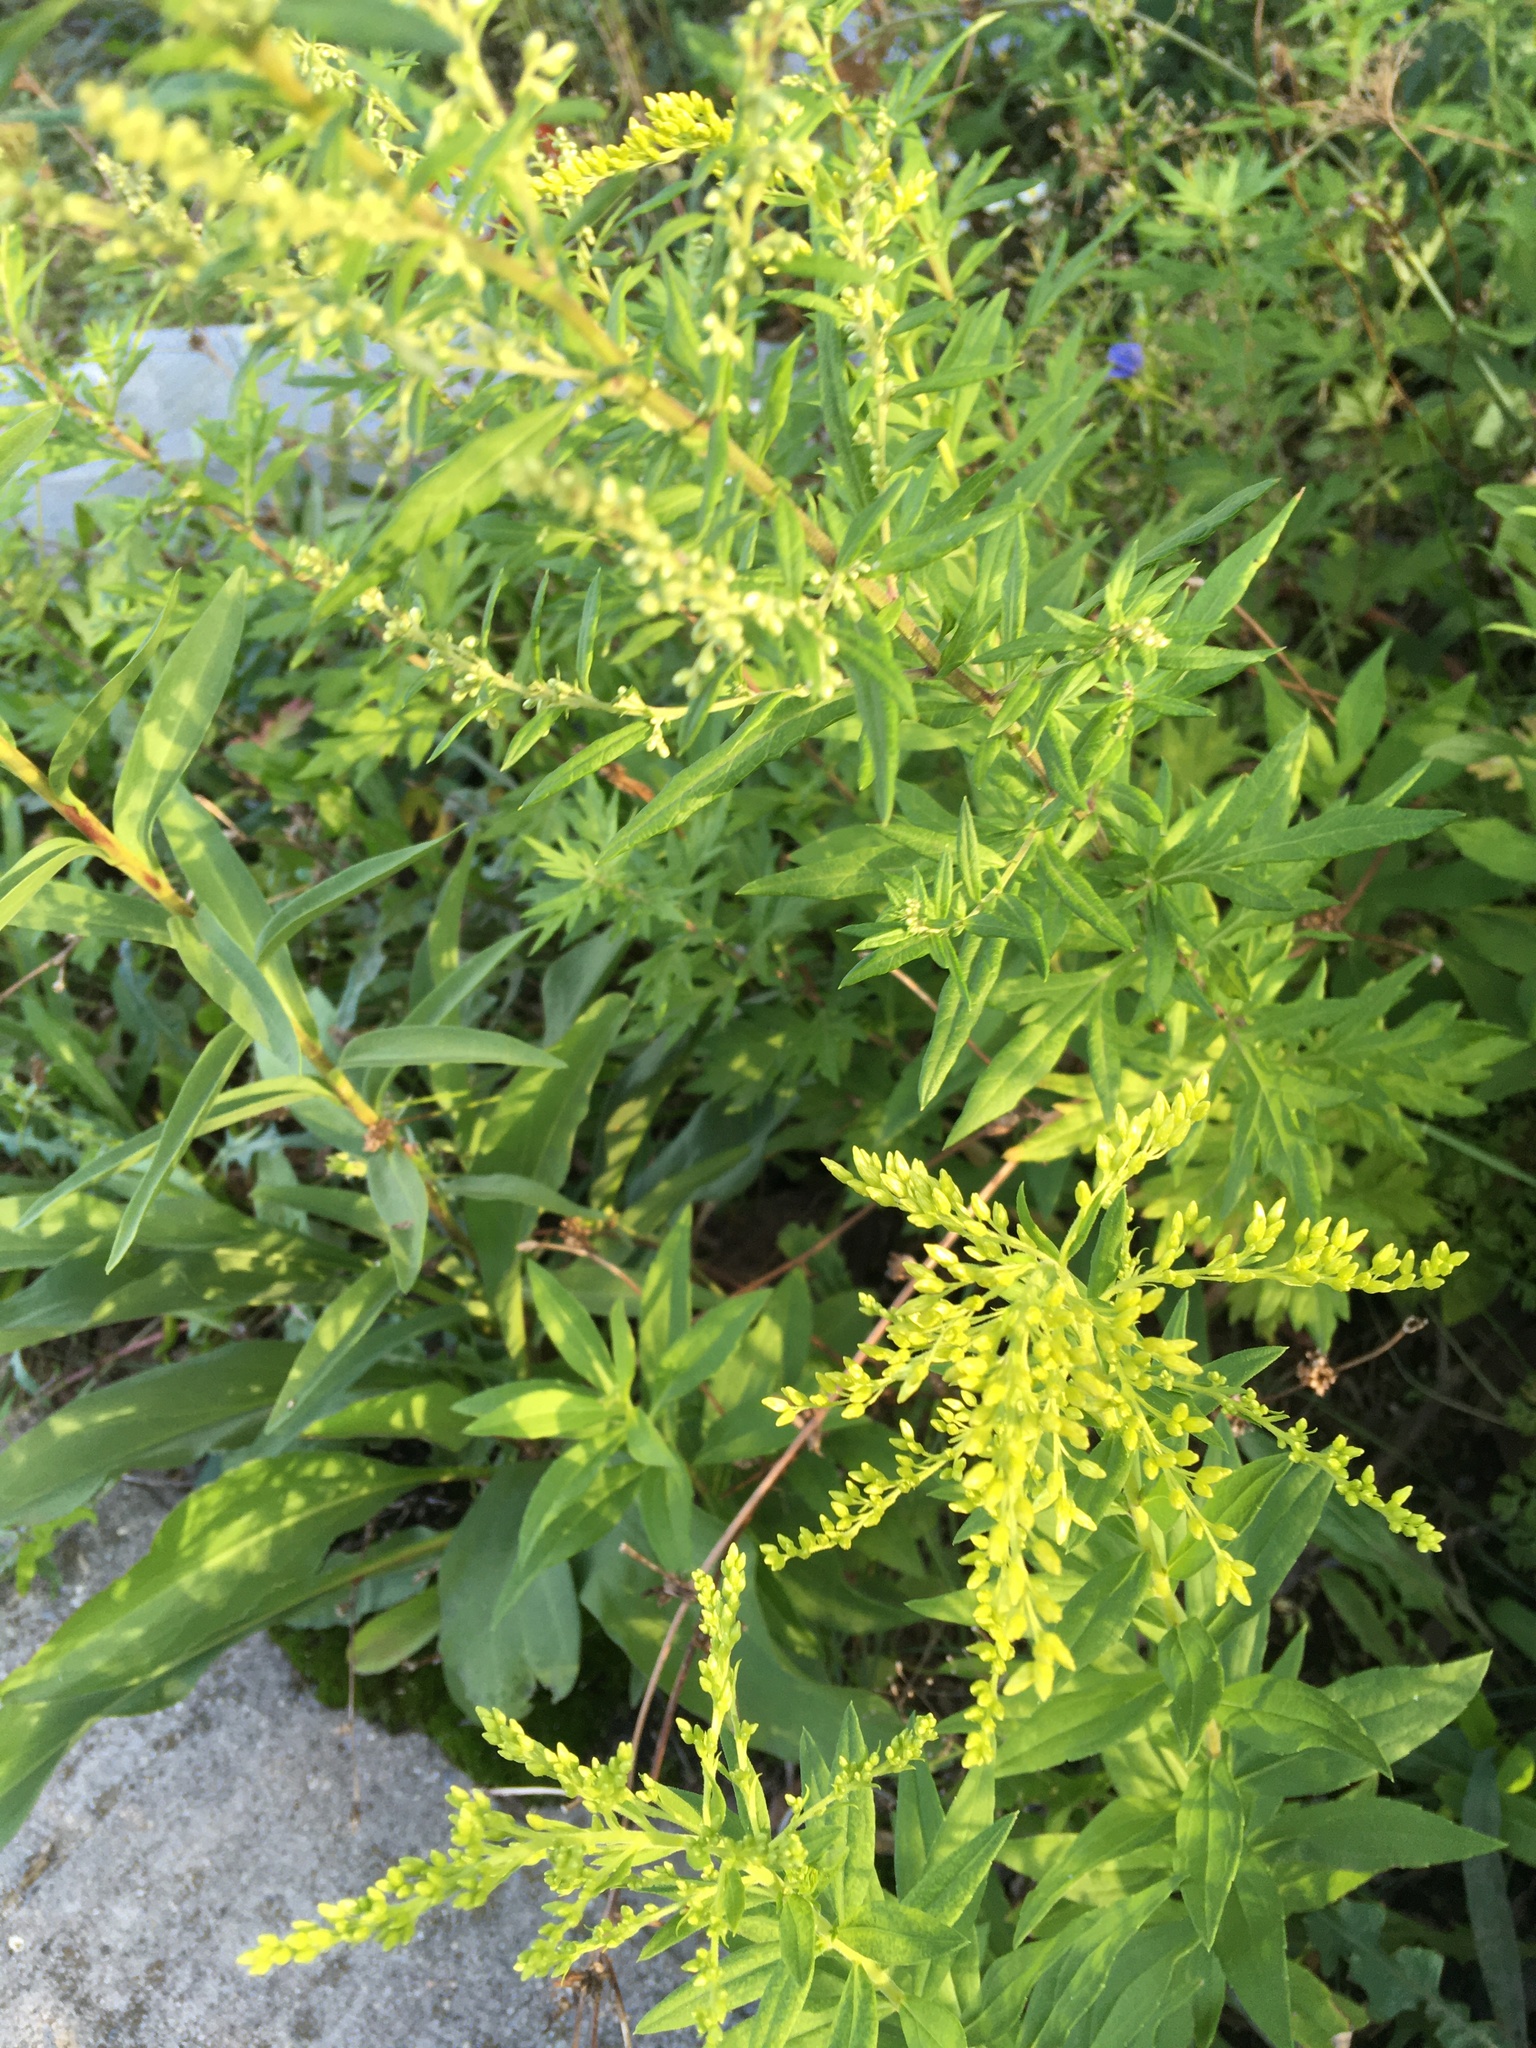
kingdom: Plantae
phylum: Tracheophyta
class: Magnoliopsida
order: Asterales
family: Asteraceae
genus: Artemisia
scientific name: Artemisia vulgaris
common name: Mugwort
